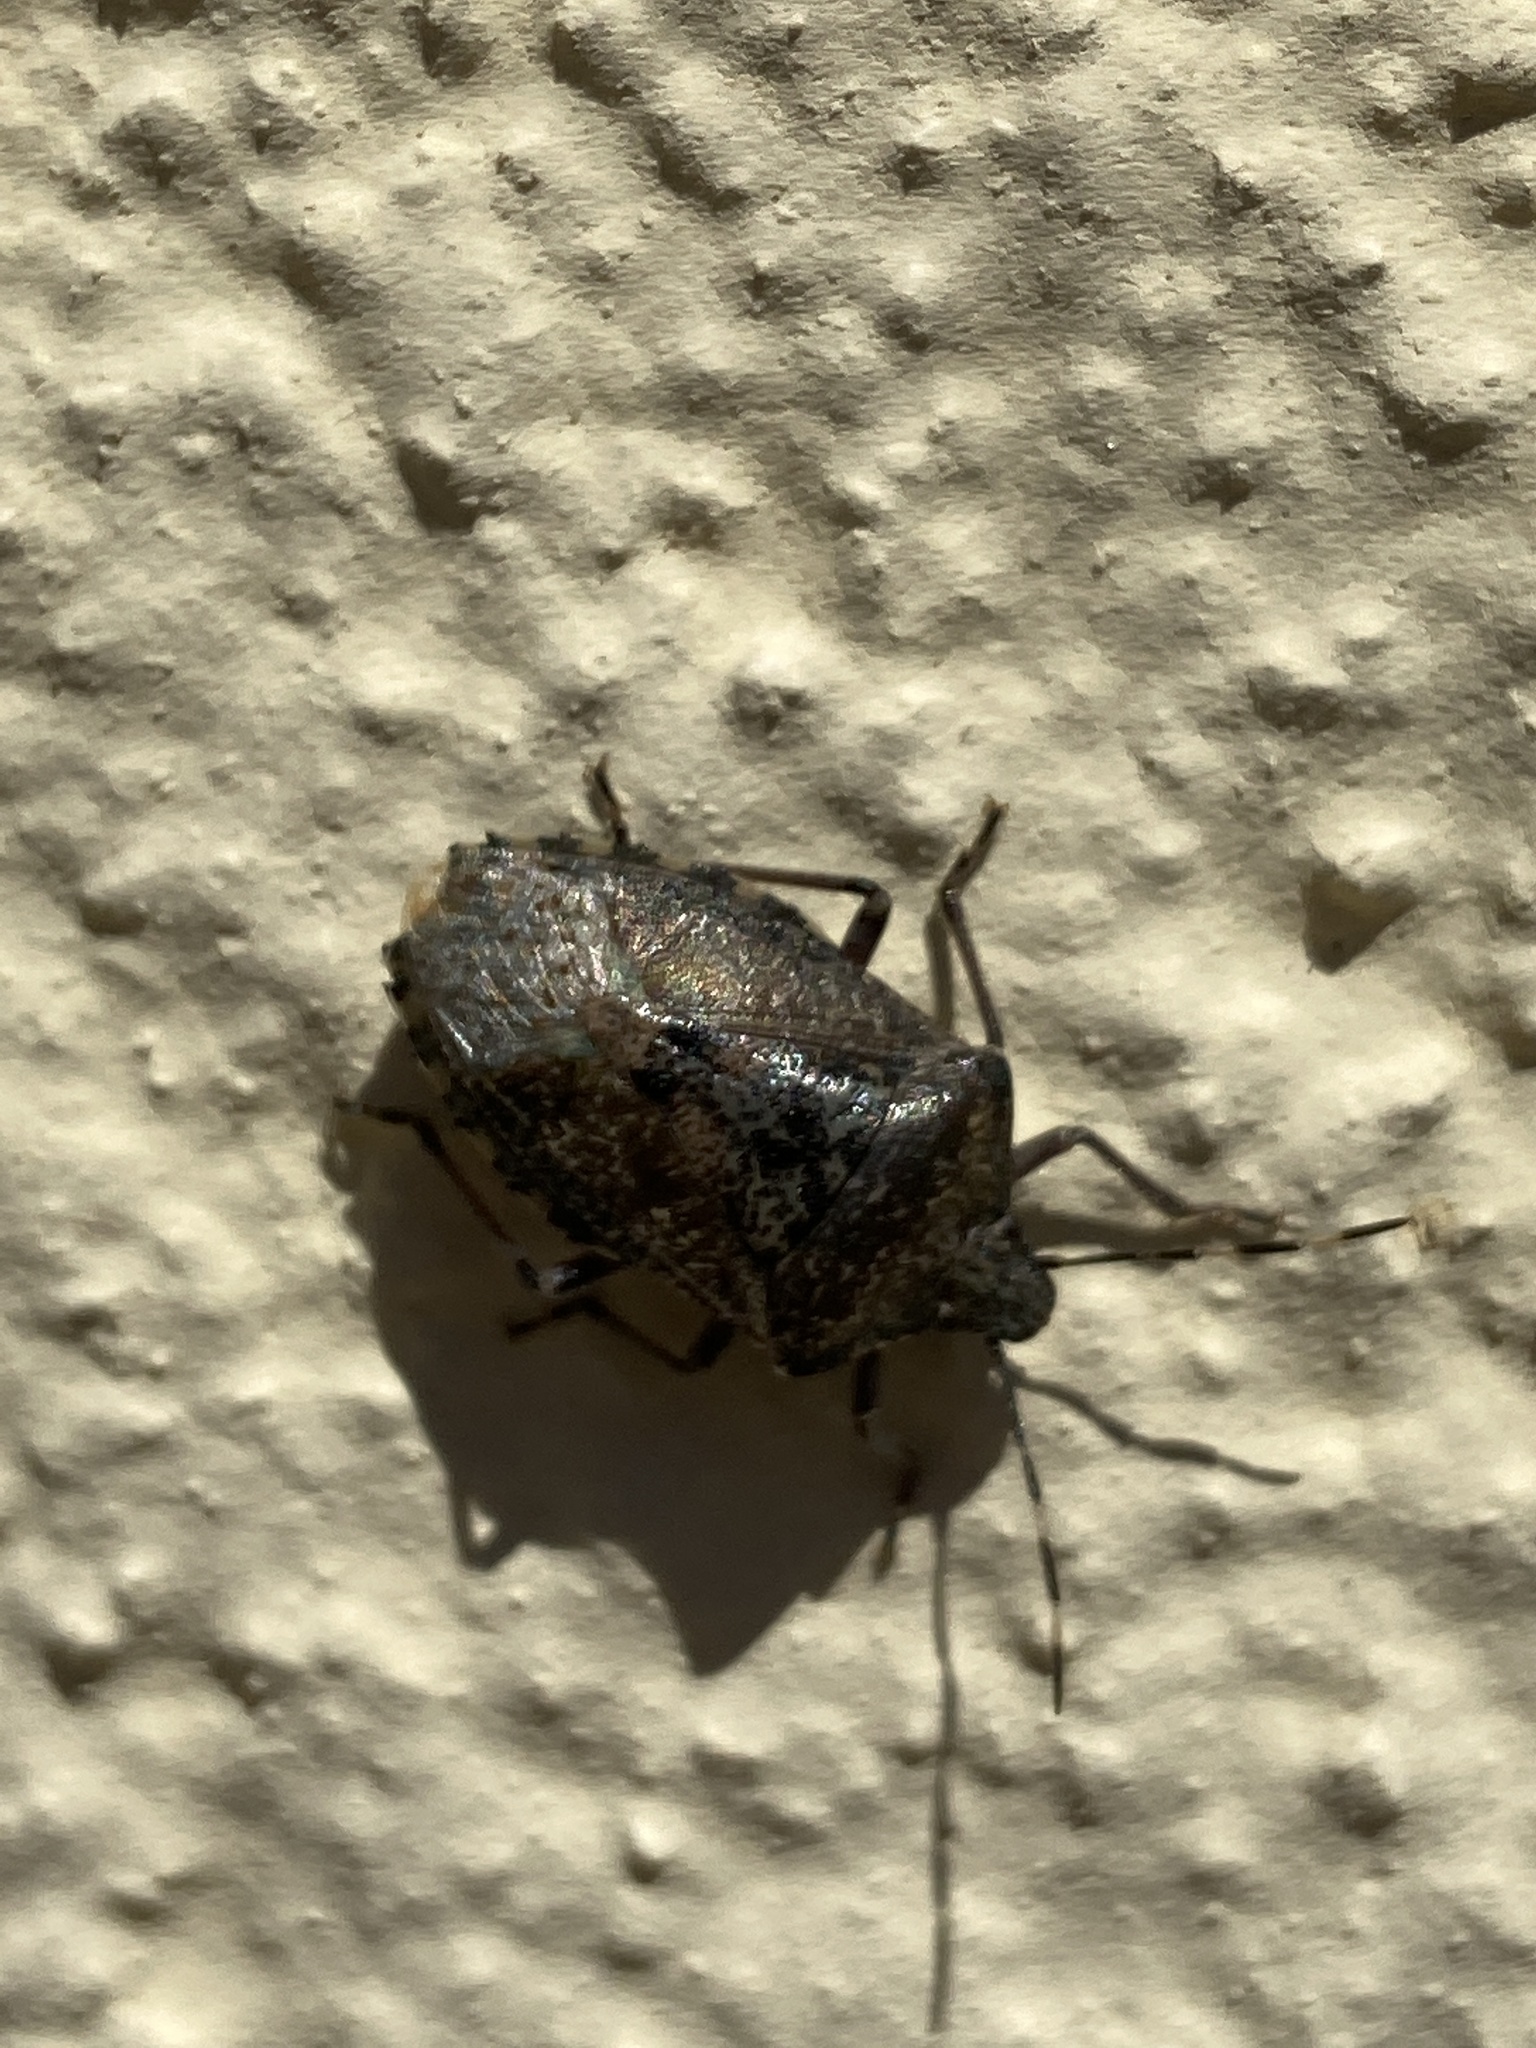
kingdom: Animalia
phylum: Arthropoda
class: Insecta
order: Hemiptera
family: Pentatomidae
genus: Rhaphigaster
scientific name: Rhaphigaster nebulosa
